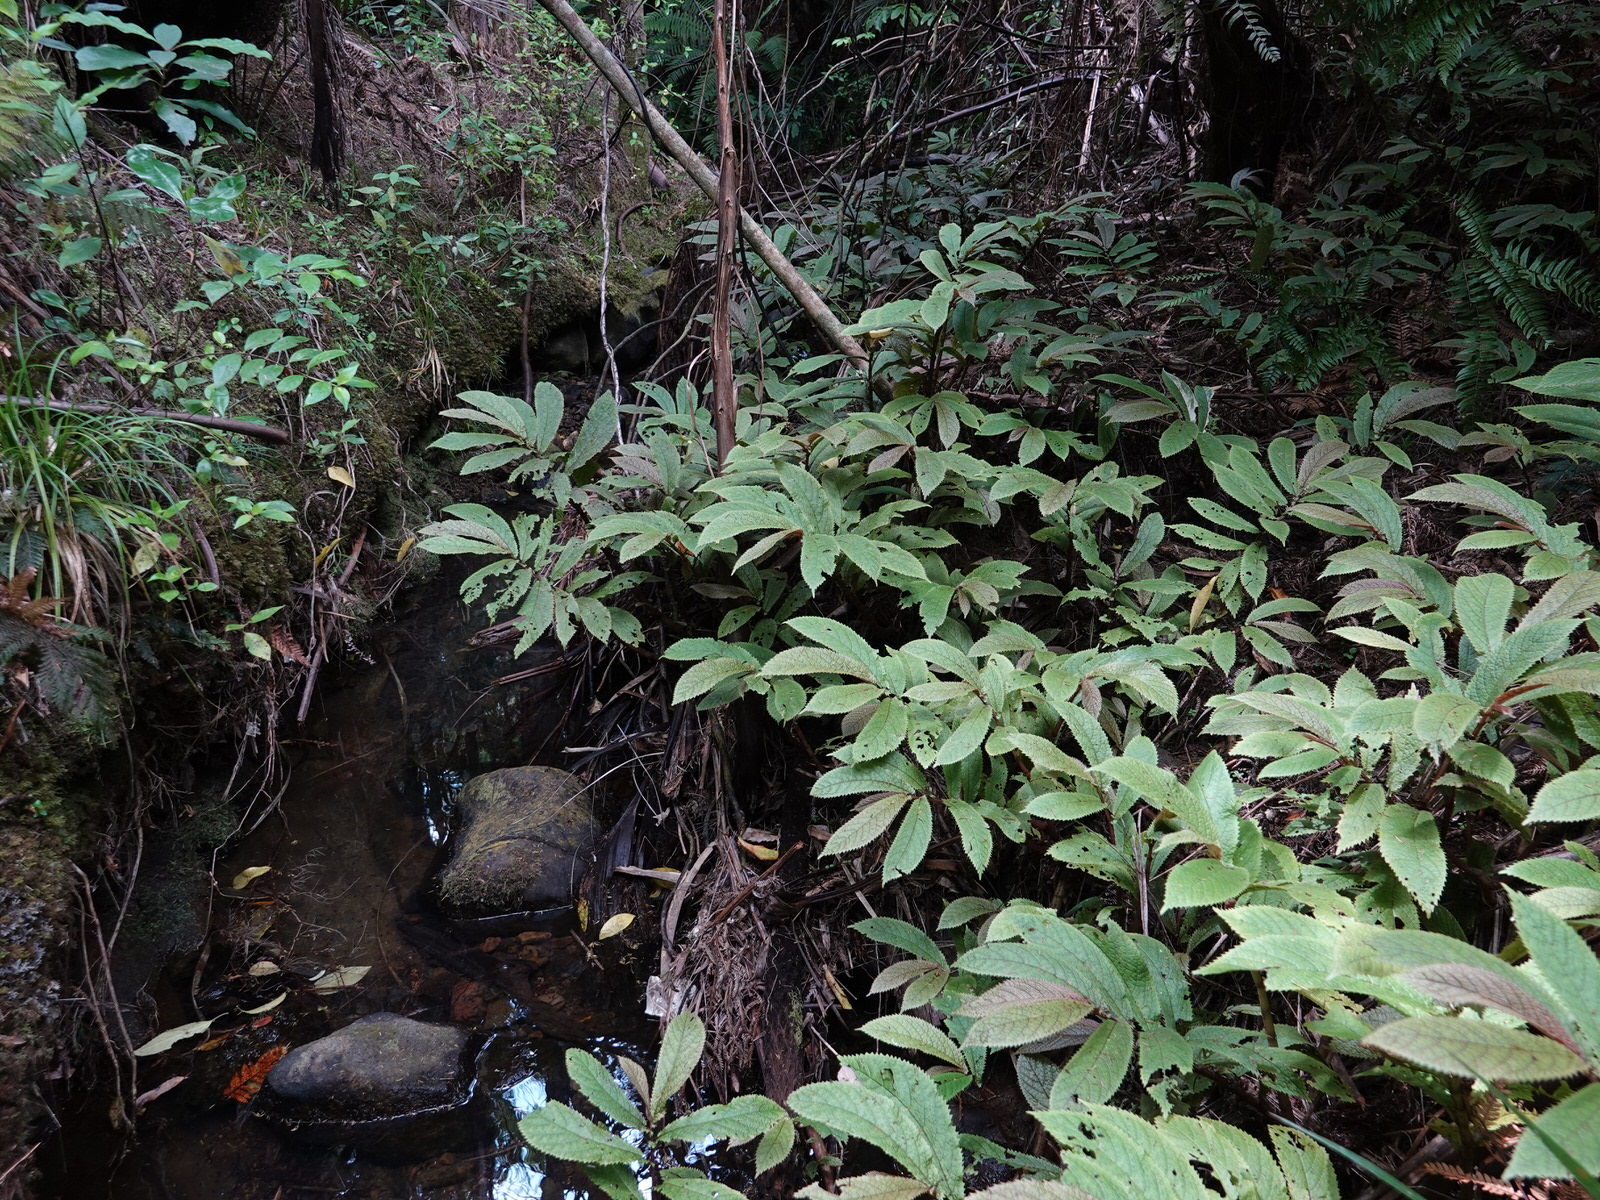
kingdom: Plantae
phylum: Tracheophyta
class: Magnoliopsida
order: Rosales
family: Urticaceae
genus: Elatostema
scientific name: Elatostema rugosum
